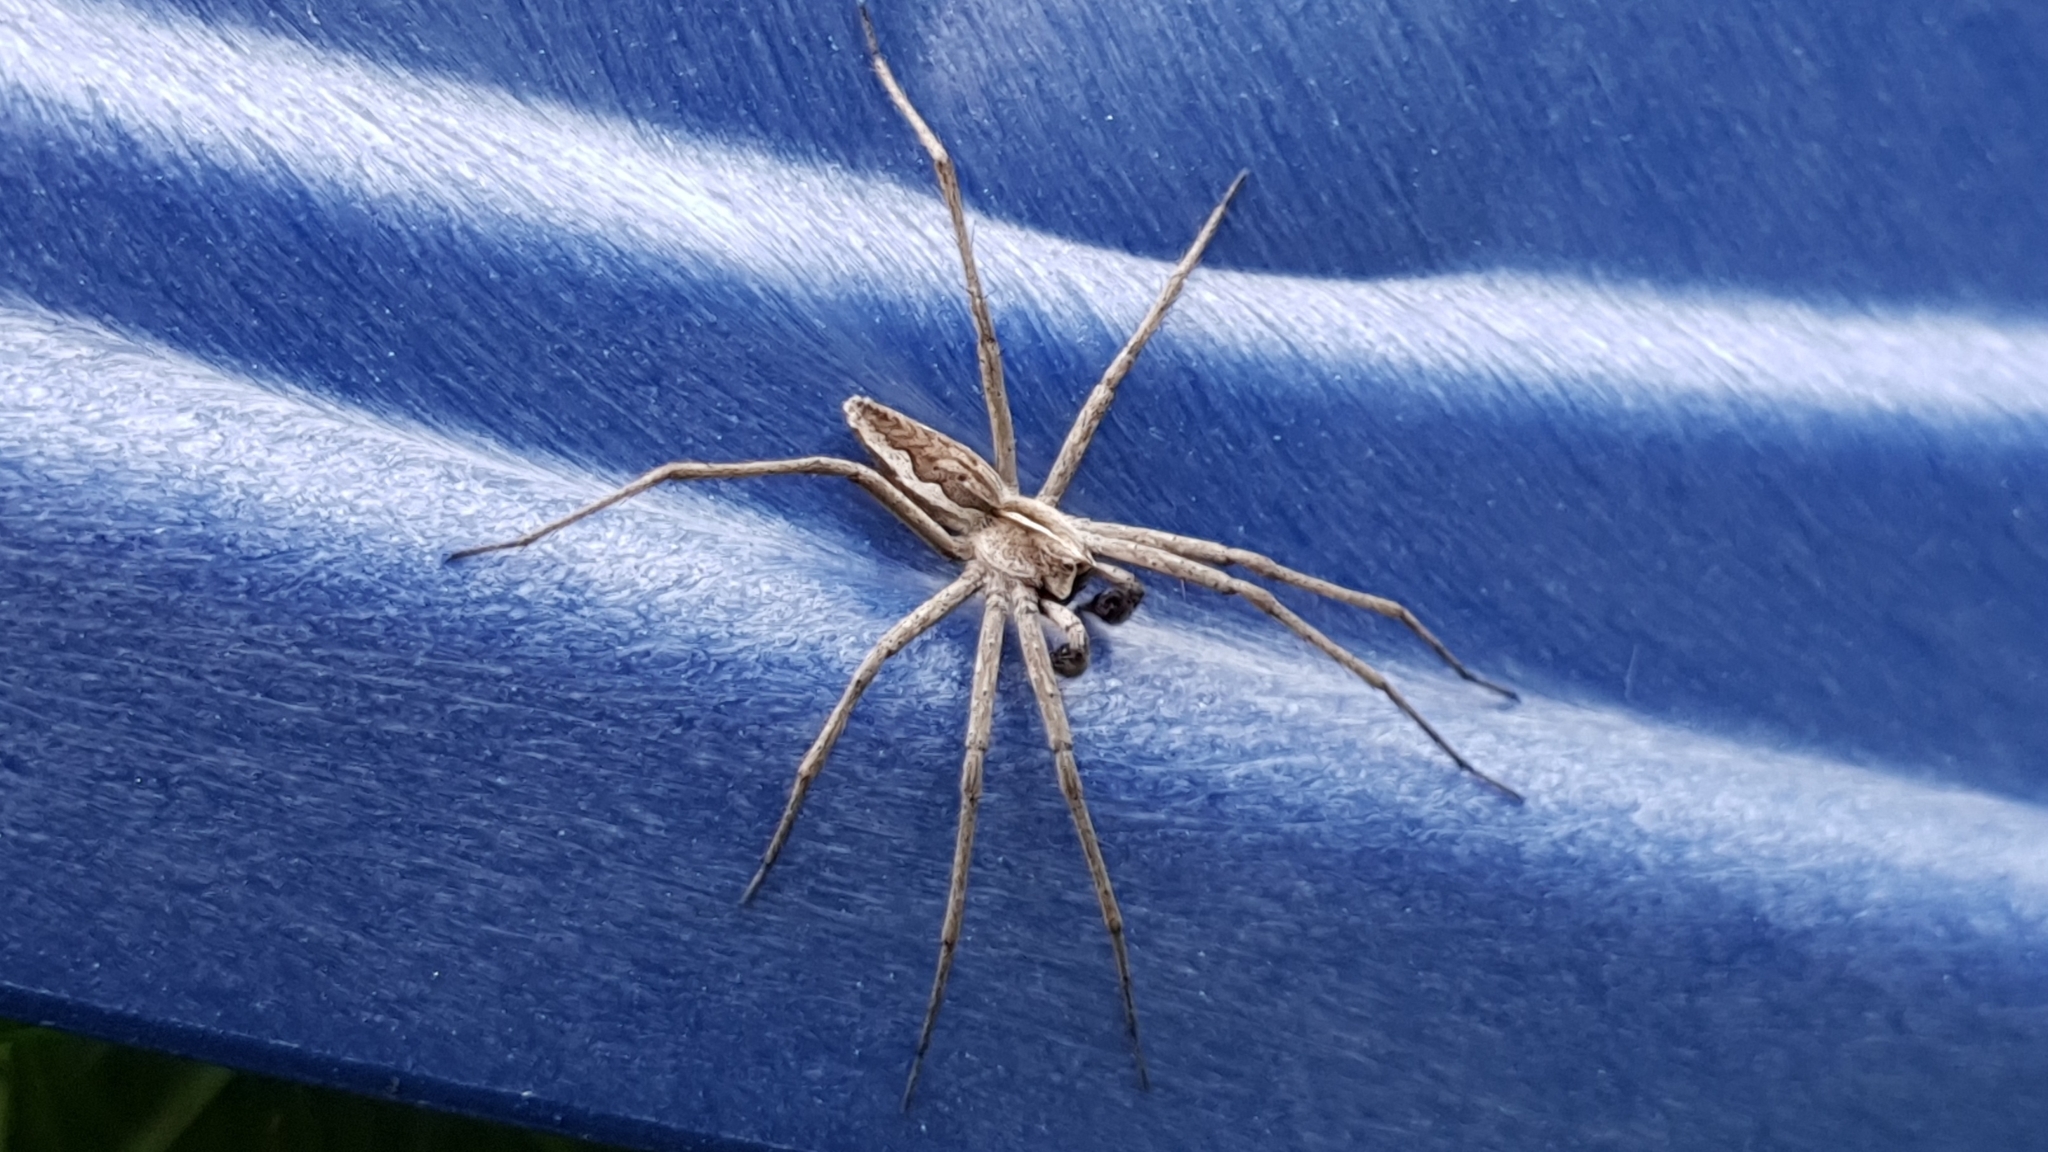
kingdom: Animalia
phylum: Arthropoda
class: Arachnida
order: Araneae
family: Pisauridae
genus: Pisaura
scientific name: Pisaura mirabilis
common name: Tent spider
